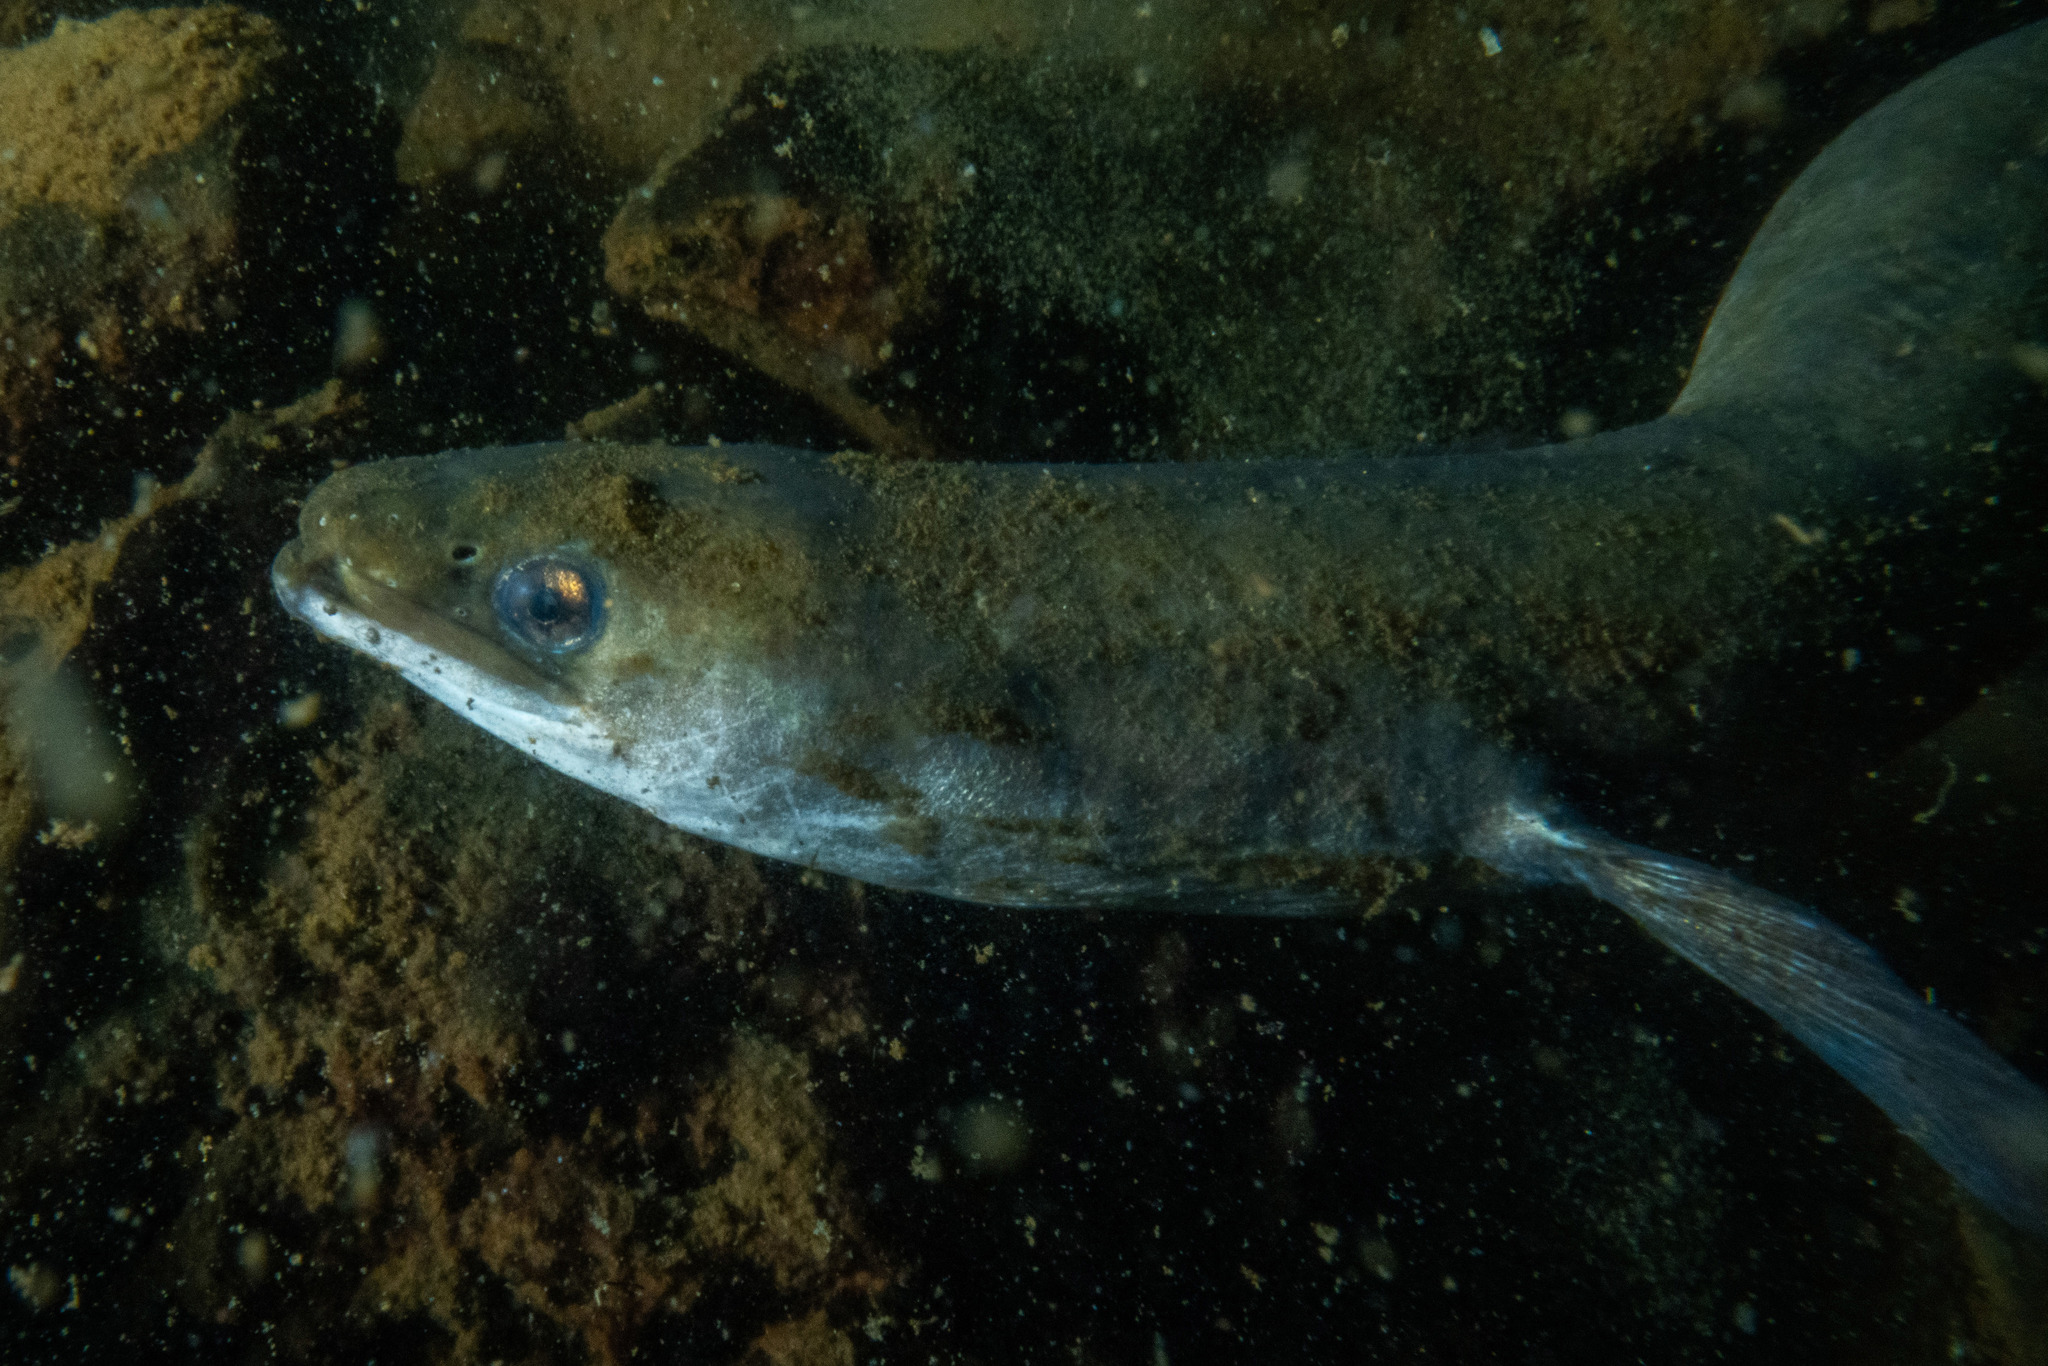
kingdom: Animalia
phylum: Chordata
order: Anguilliformes
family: Anguillidae
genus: Anguilla
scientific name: Anguilla australis
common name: Shortfin eel
